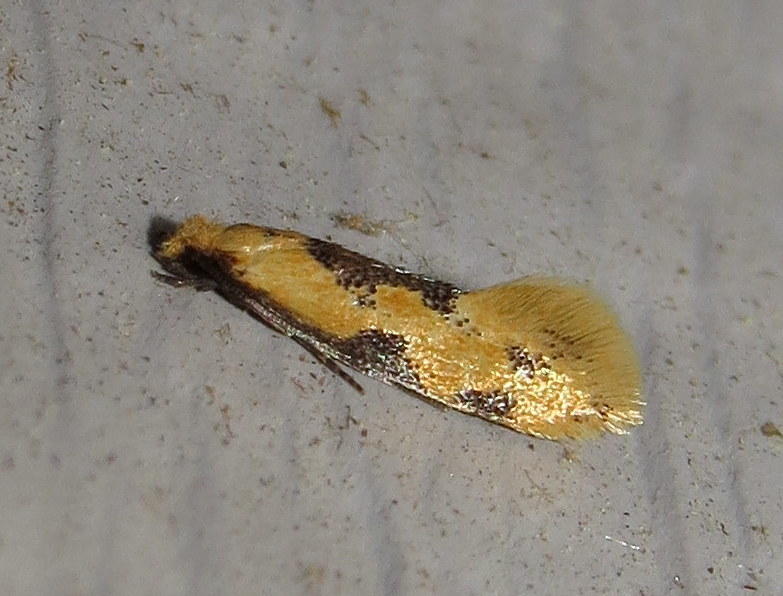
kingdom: Animalia
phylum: Arthropoda
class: Insecta
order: Lepidoptera
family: Meessiidae
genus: Hybroma
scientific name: Hybroma servulella
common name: Yellow wave moth
